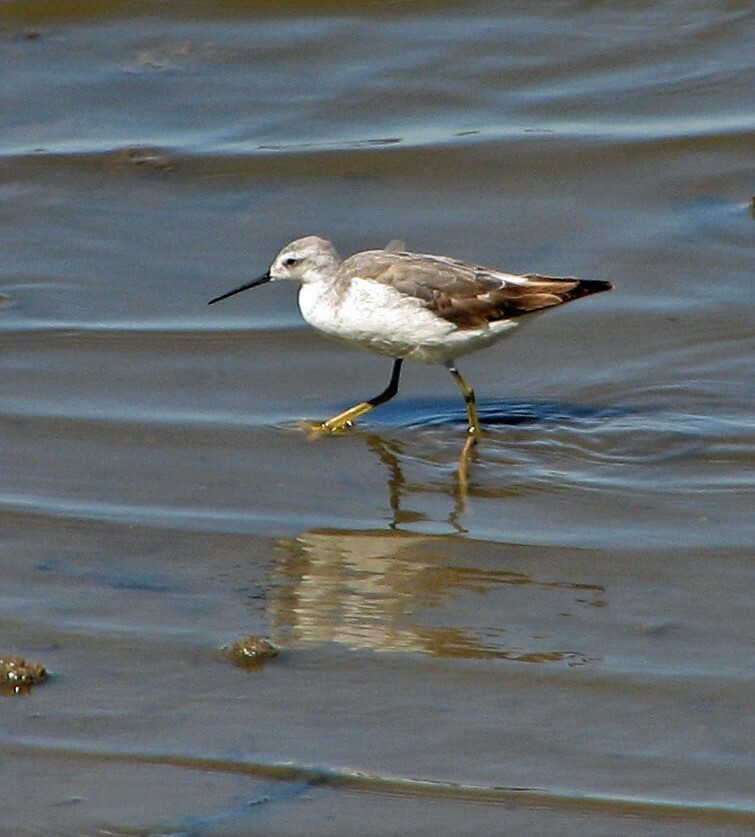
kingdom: Animalia
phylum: Chordata
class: Aves
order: Charadriiformes
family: Scolopacidae
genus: Phalaropus
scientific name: Phalaropus tricolor
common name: Wilson's phalarope
